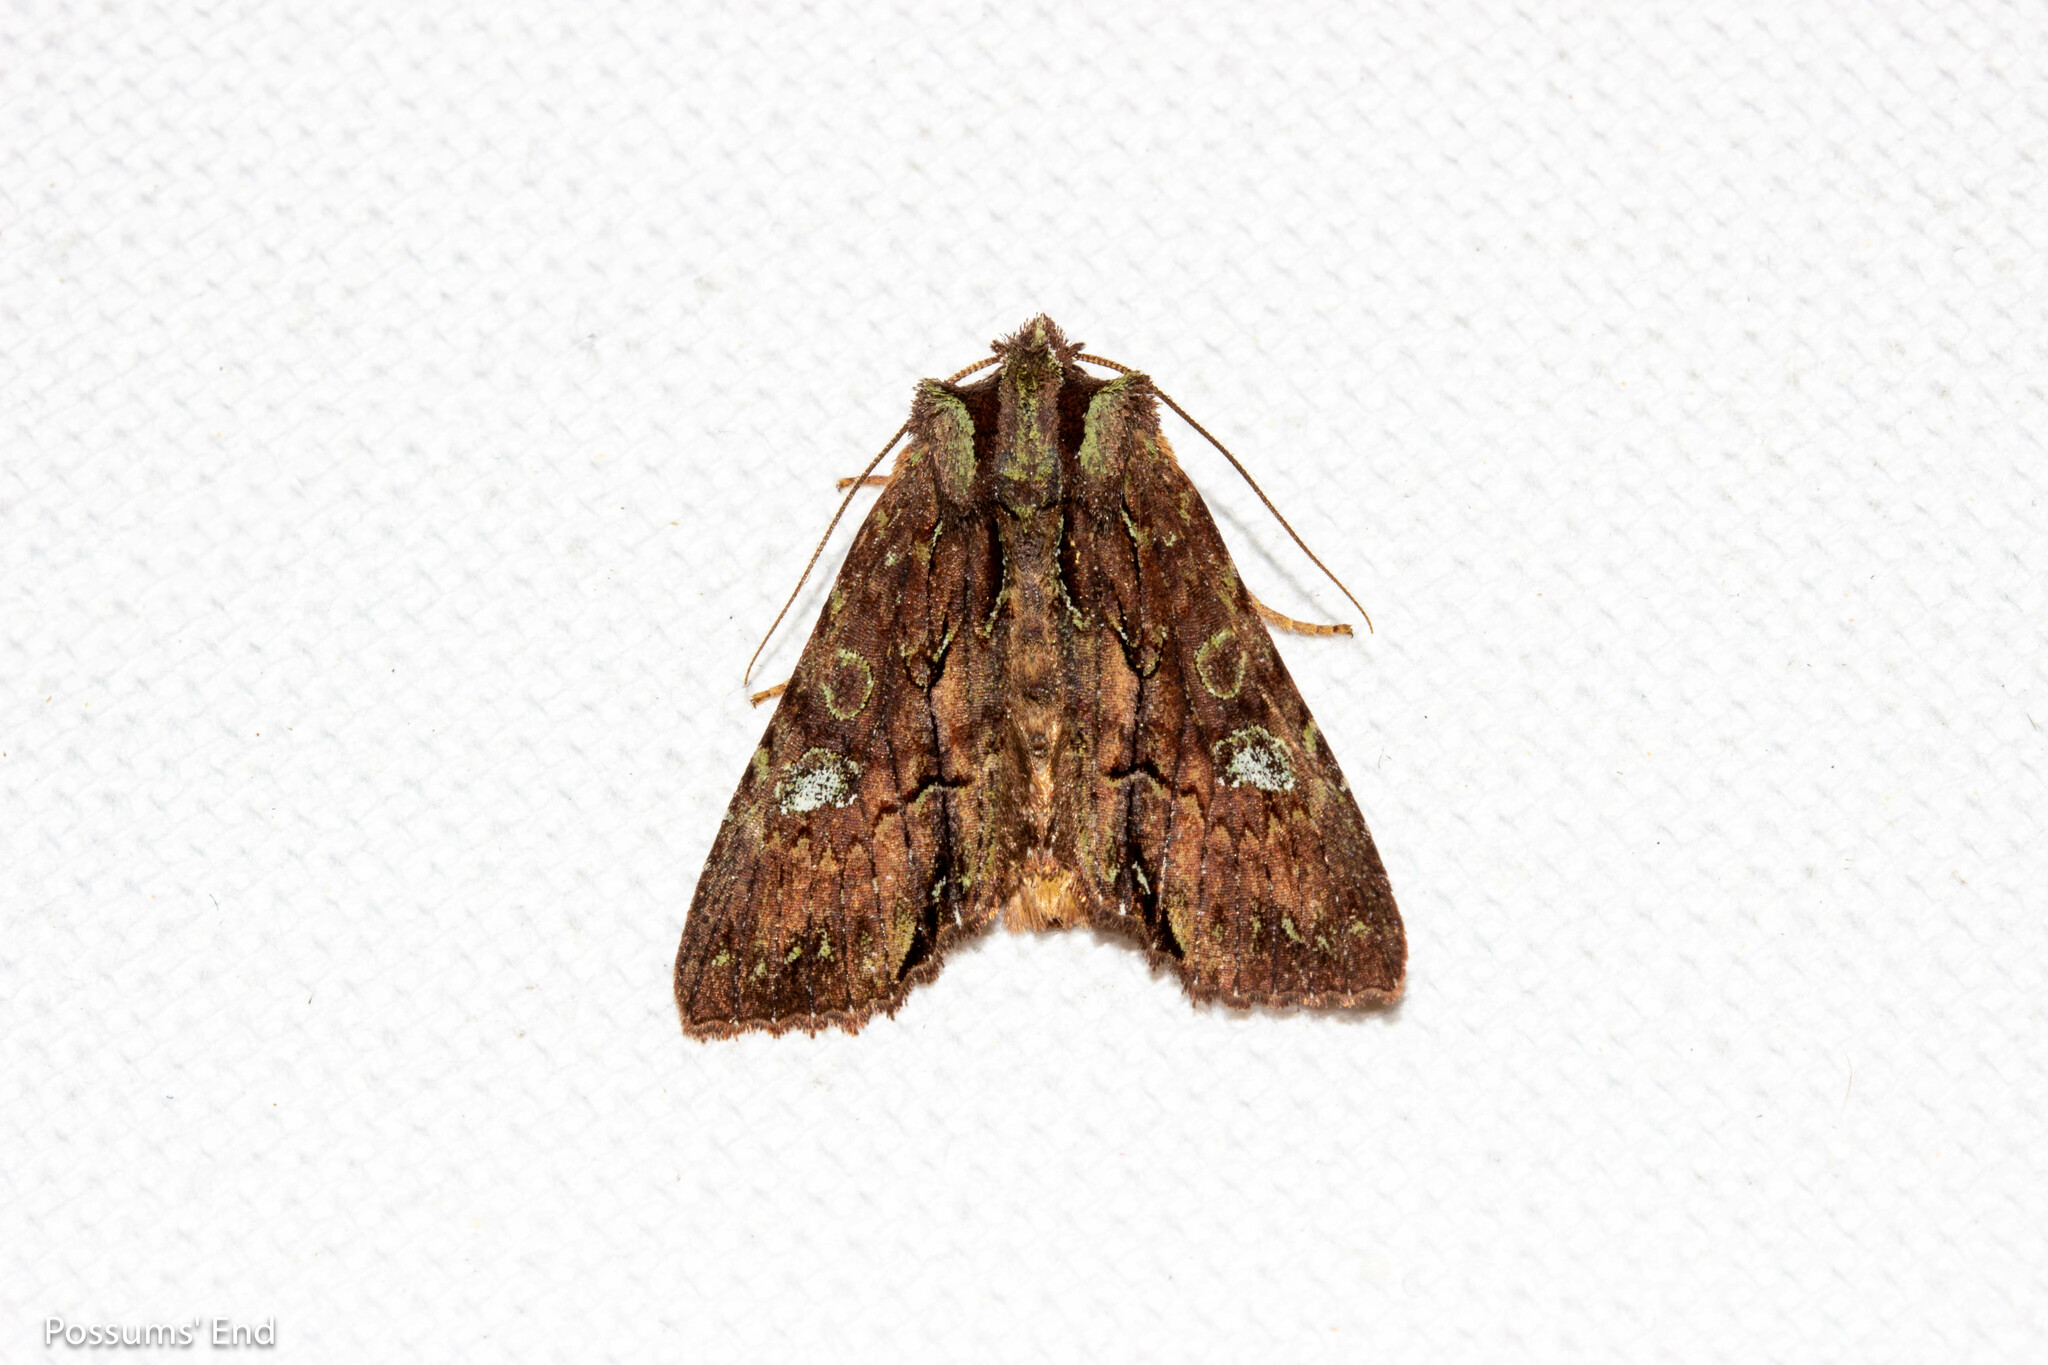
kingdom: Animalia
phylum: Arthropoda
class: Insecta
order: Lepidoptera
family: Noctuidae
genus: Meterana
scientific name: Meterana diatmeta
